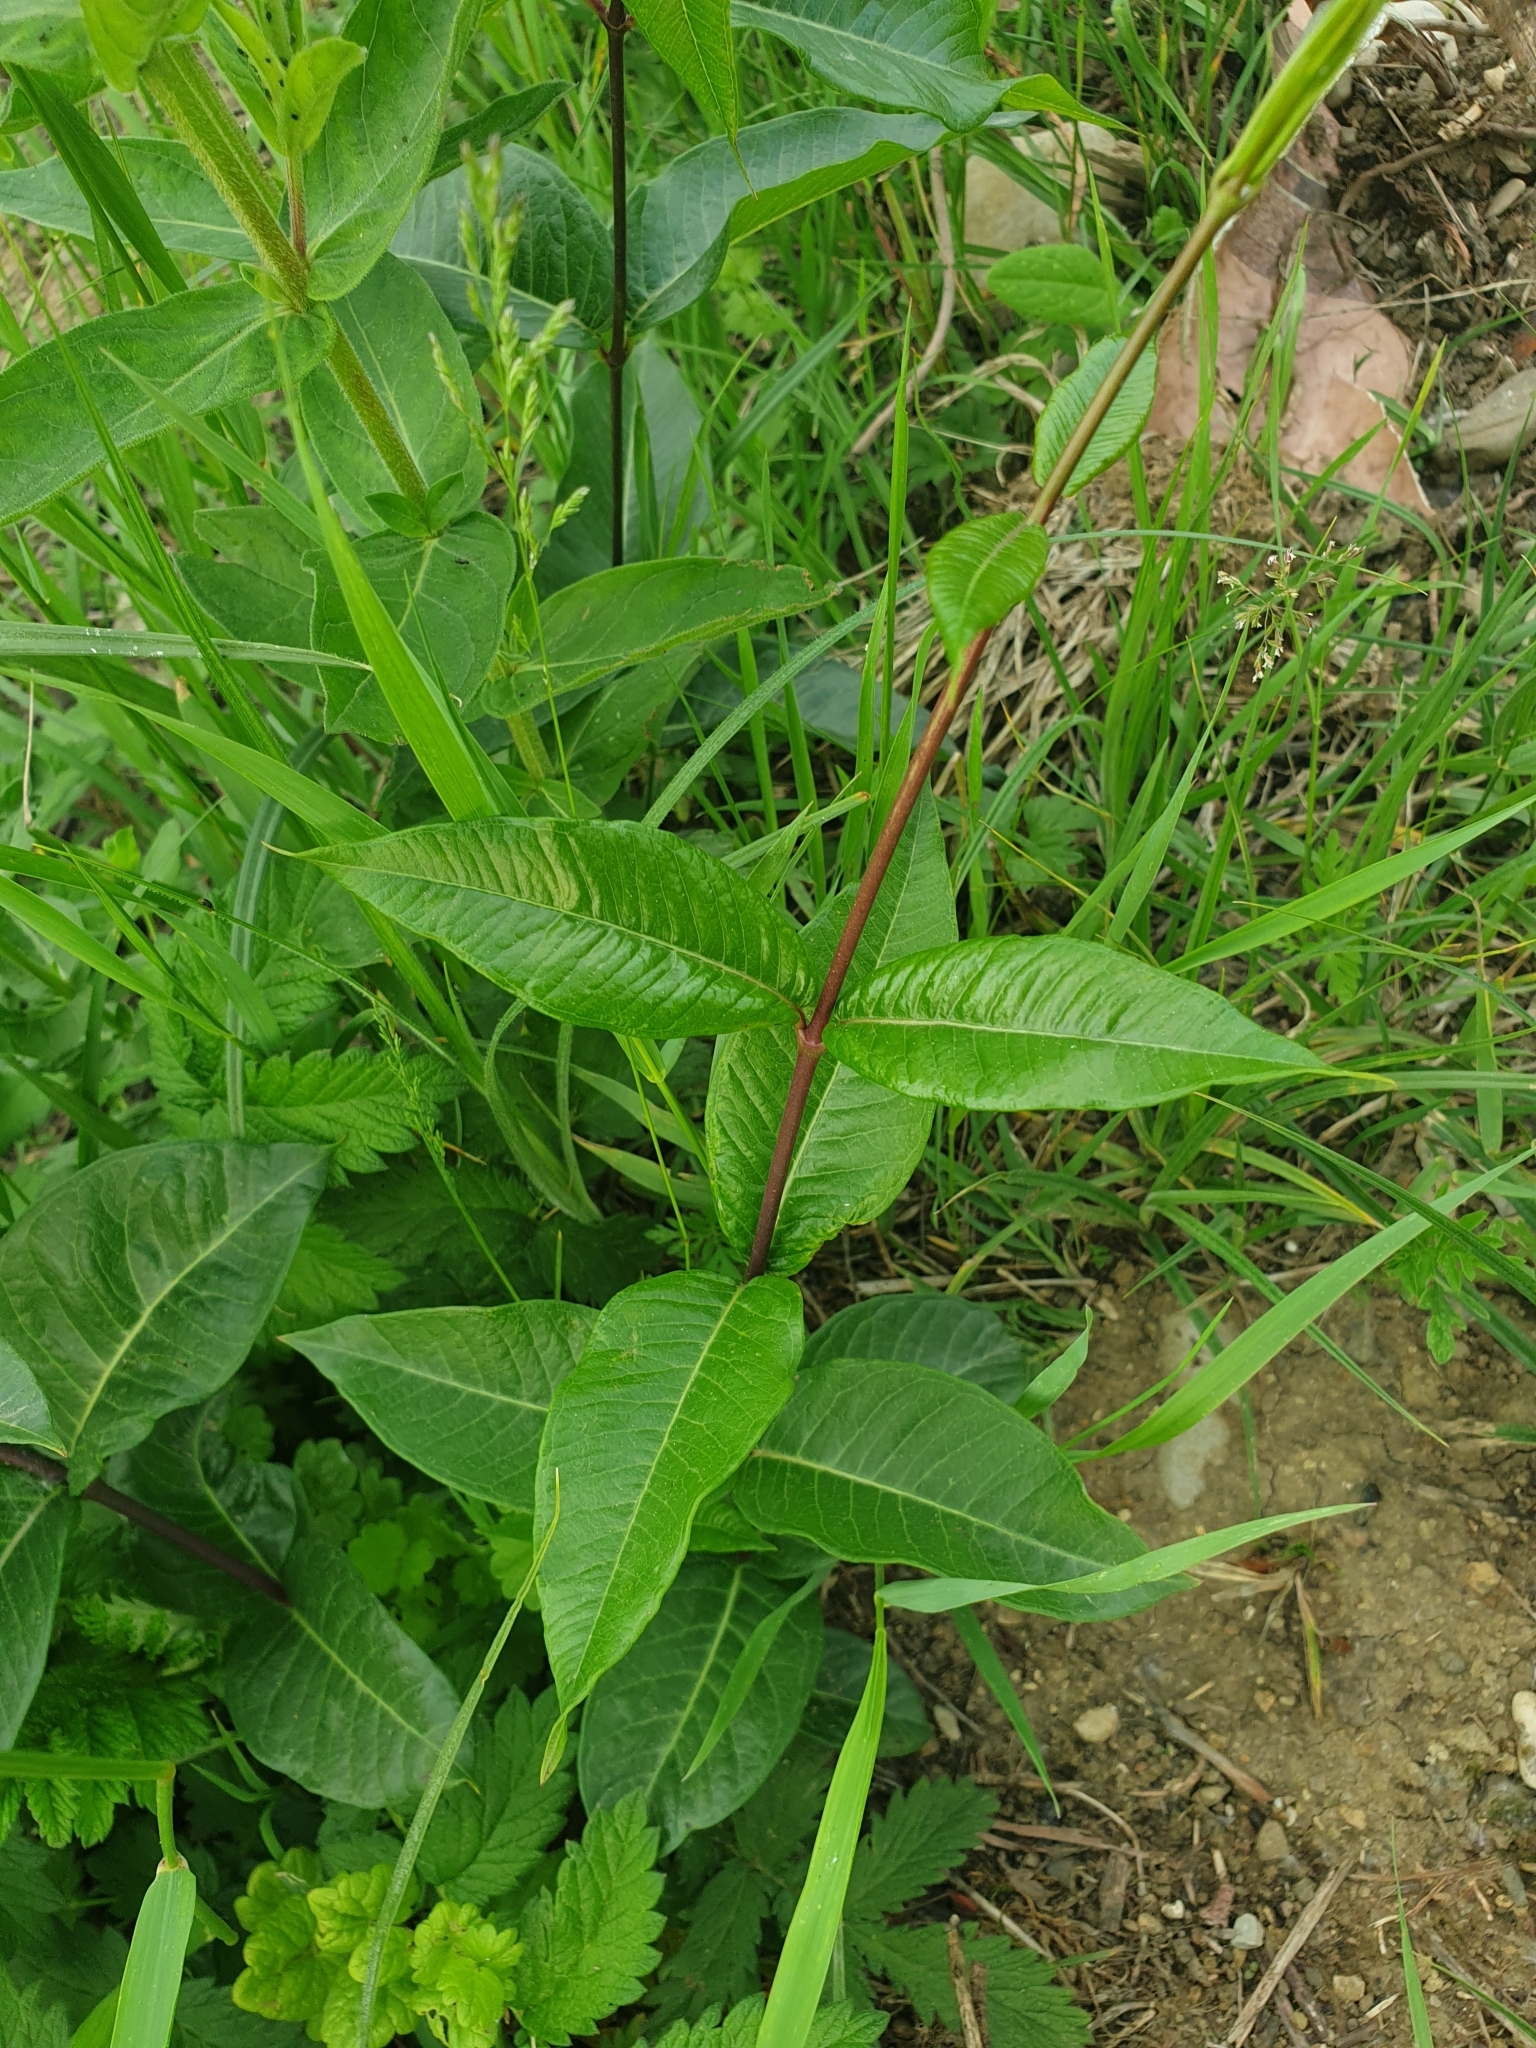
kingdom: Plantae
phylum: Tracheophyta
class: Magnoliopsida
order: Gentianales
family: Apocynaceae
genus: Periploca
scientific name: Periploca graeca
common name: Silkvine
